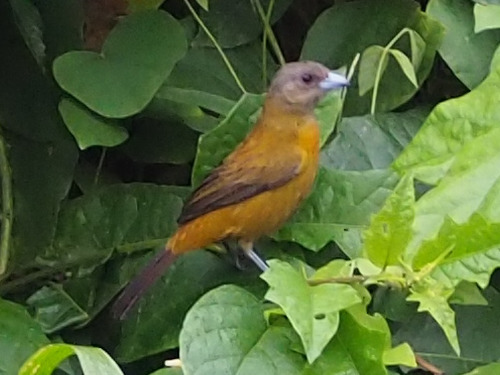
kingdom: Animalia
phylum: Chordata
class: Aves
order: Passeriformes
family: Thraupidae
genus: Ramphocelus
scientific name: Ramphocelus passerinii
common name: Passerini's tanager
